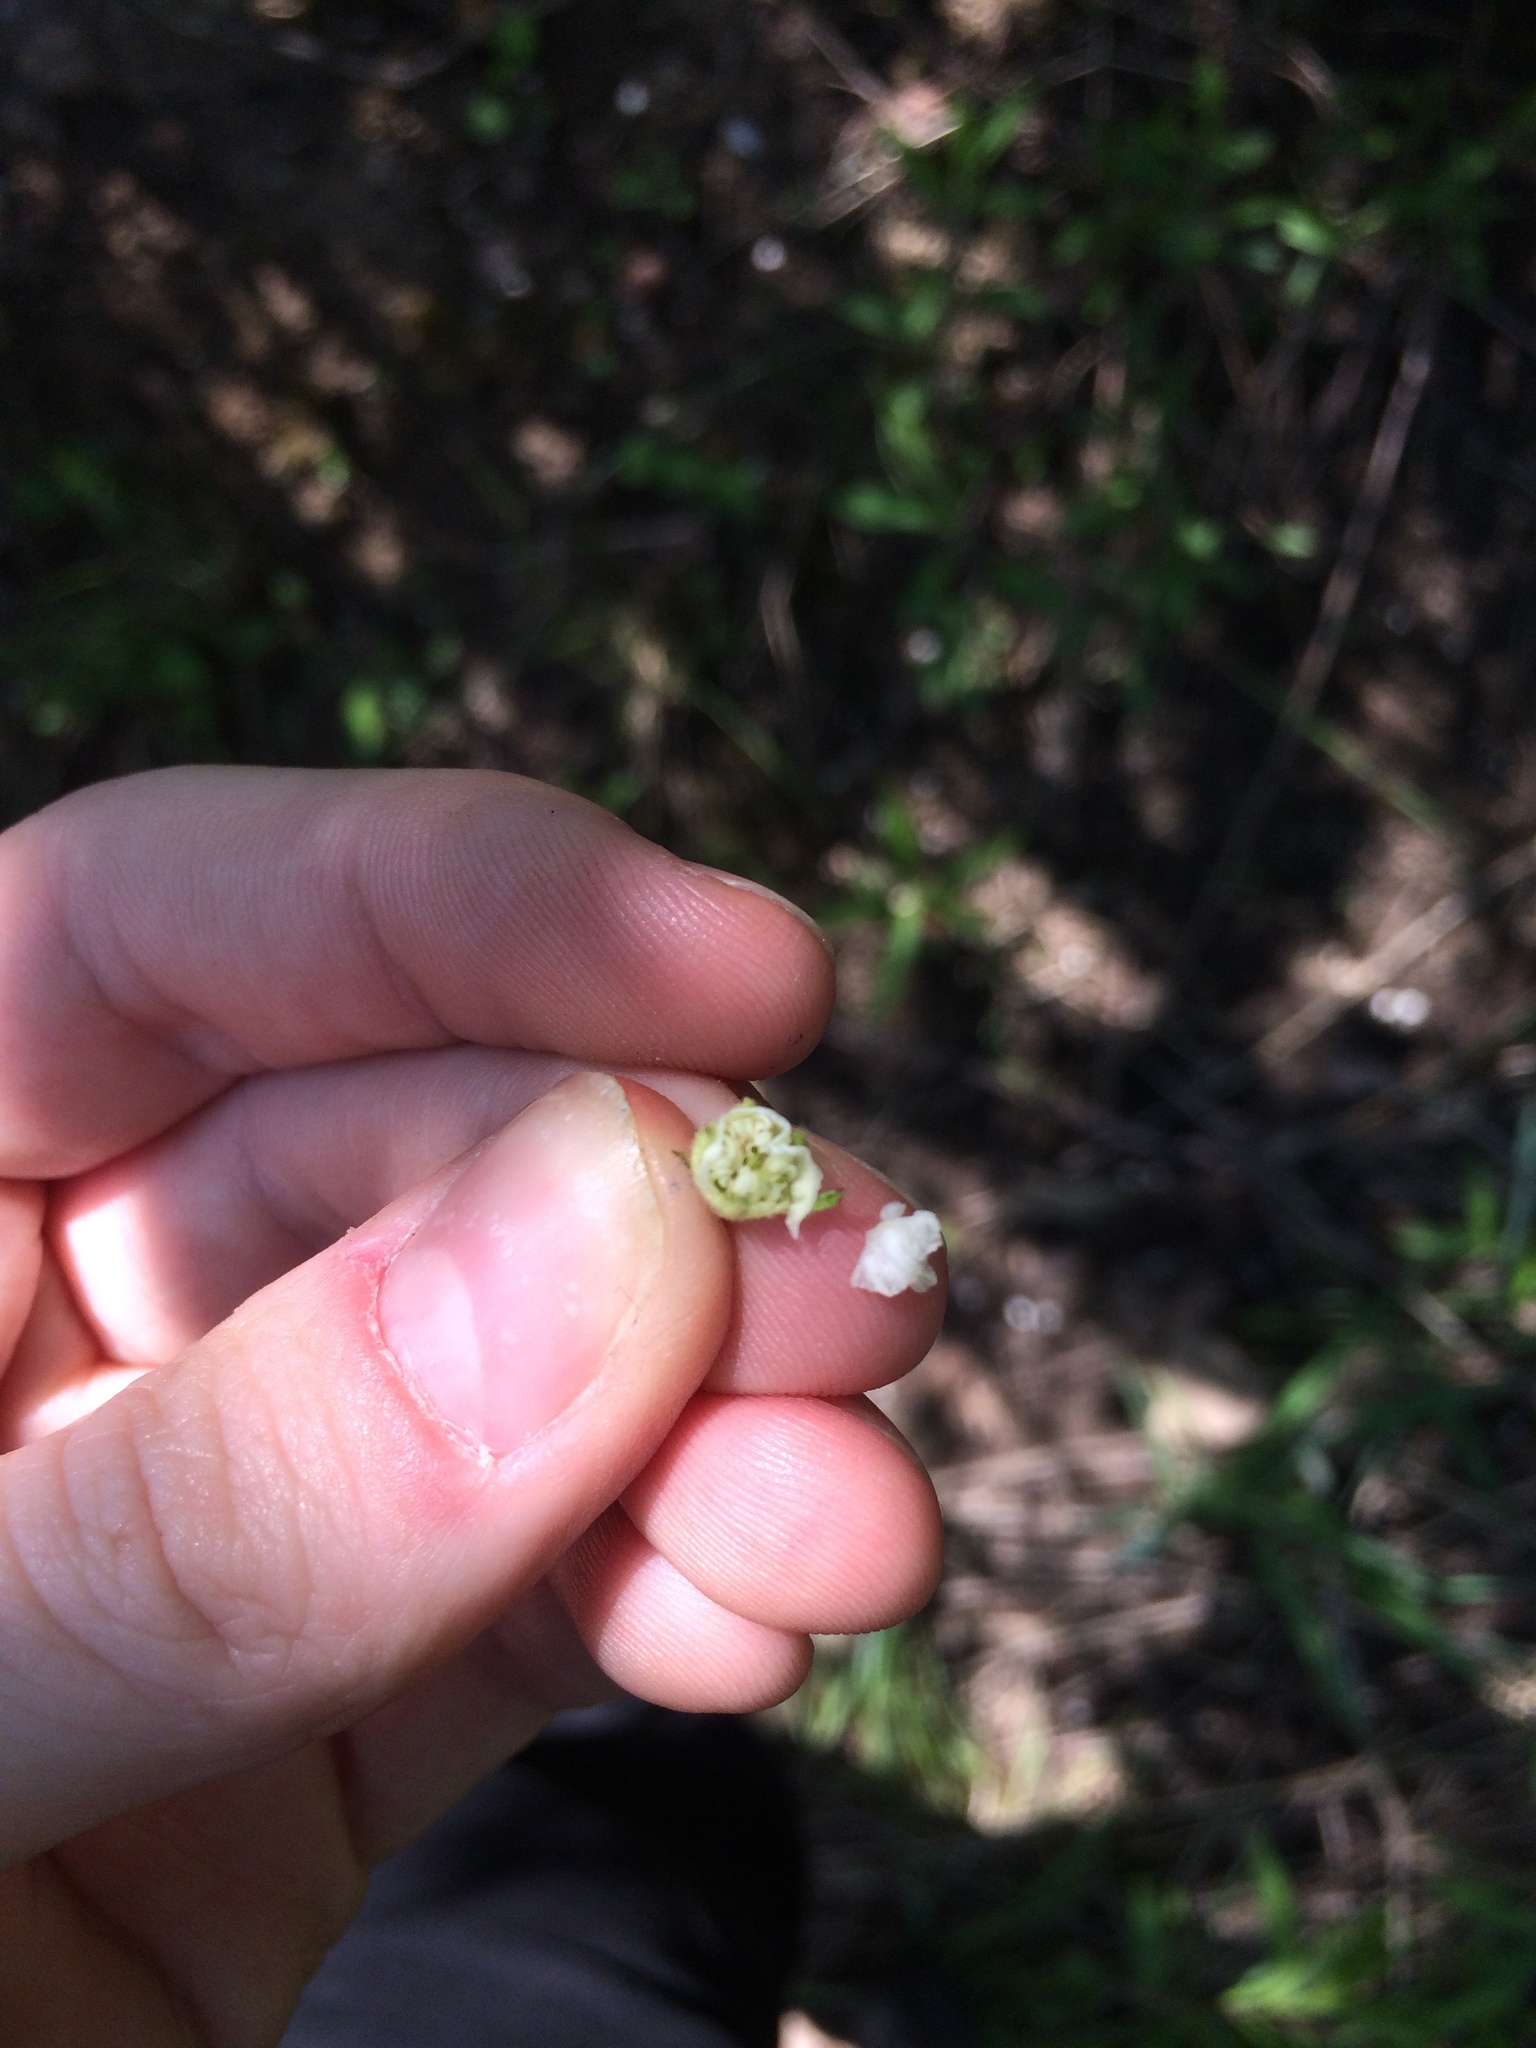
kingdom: Plantae
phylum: Tracheophyta
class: Magnoliopsida
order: Rosales
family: Rosaceae
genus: Crataegus
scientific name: Crataegus submollis
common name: Hairy cockspurthorn
